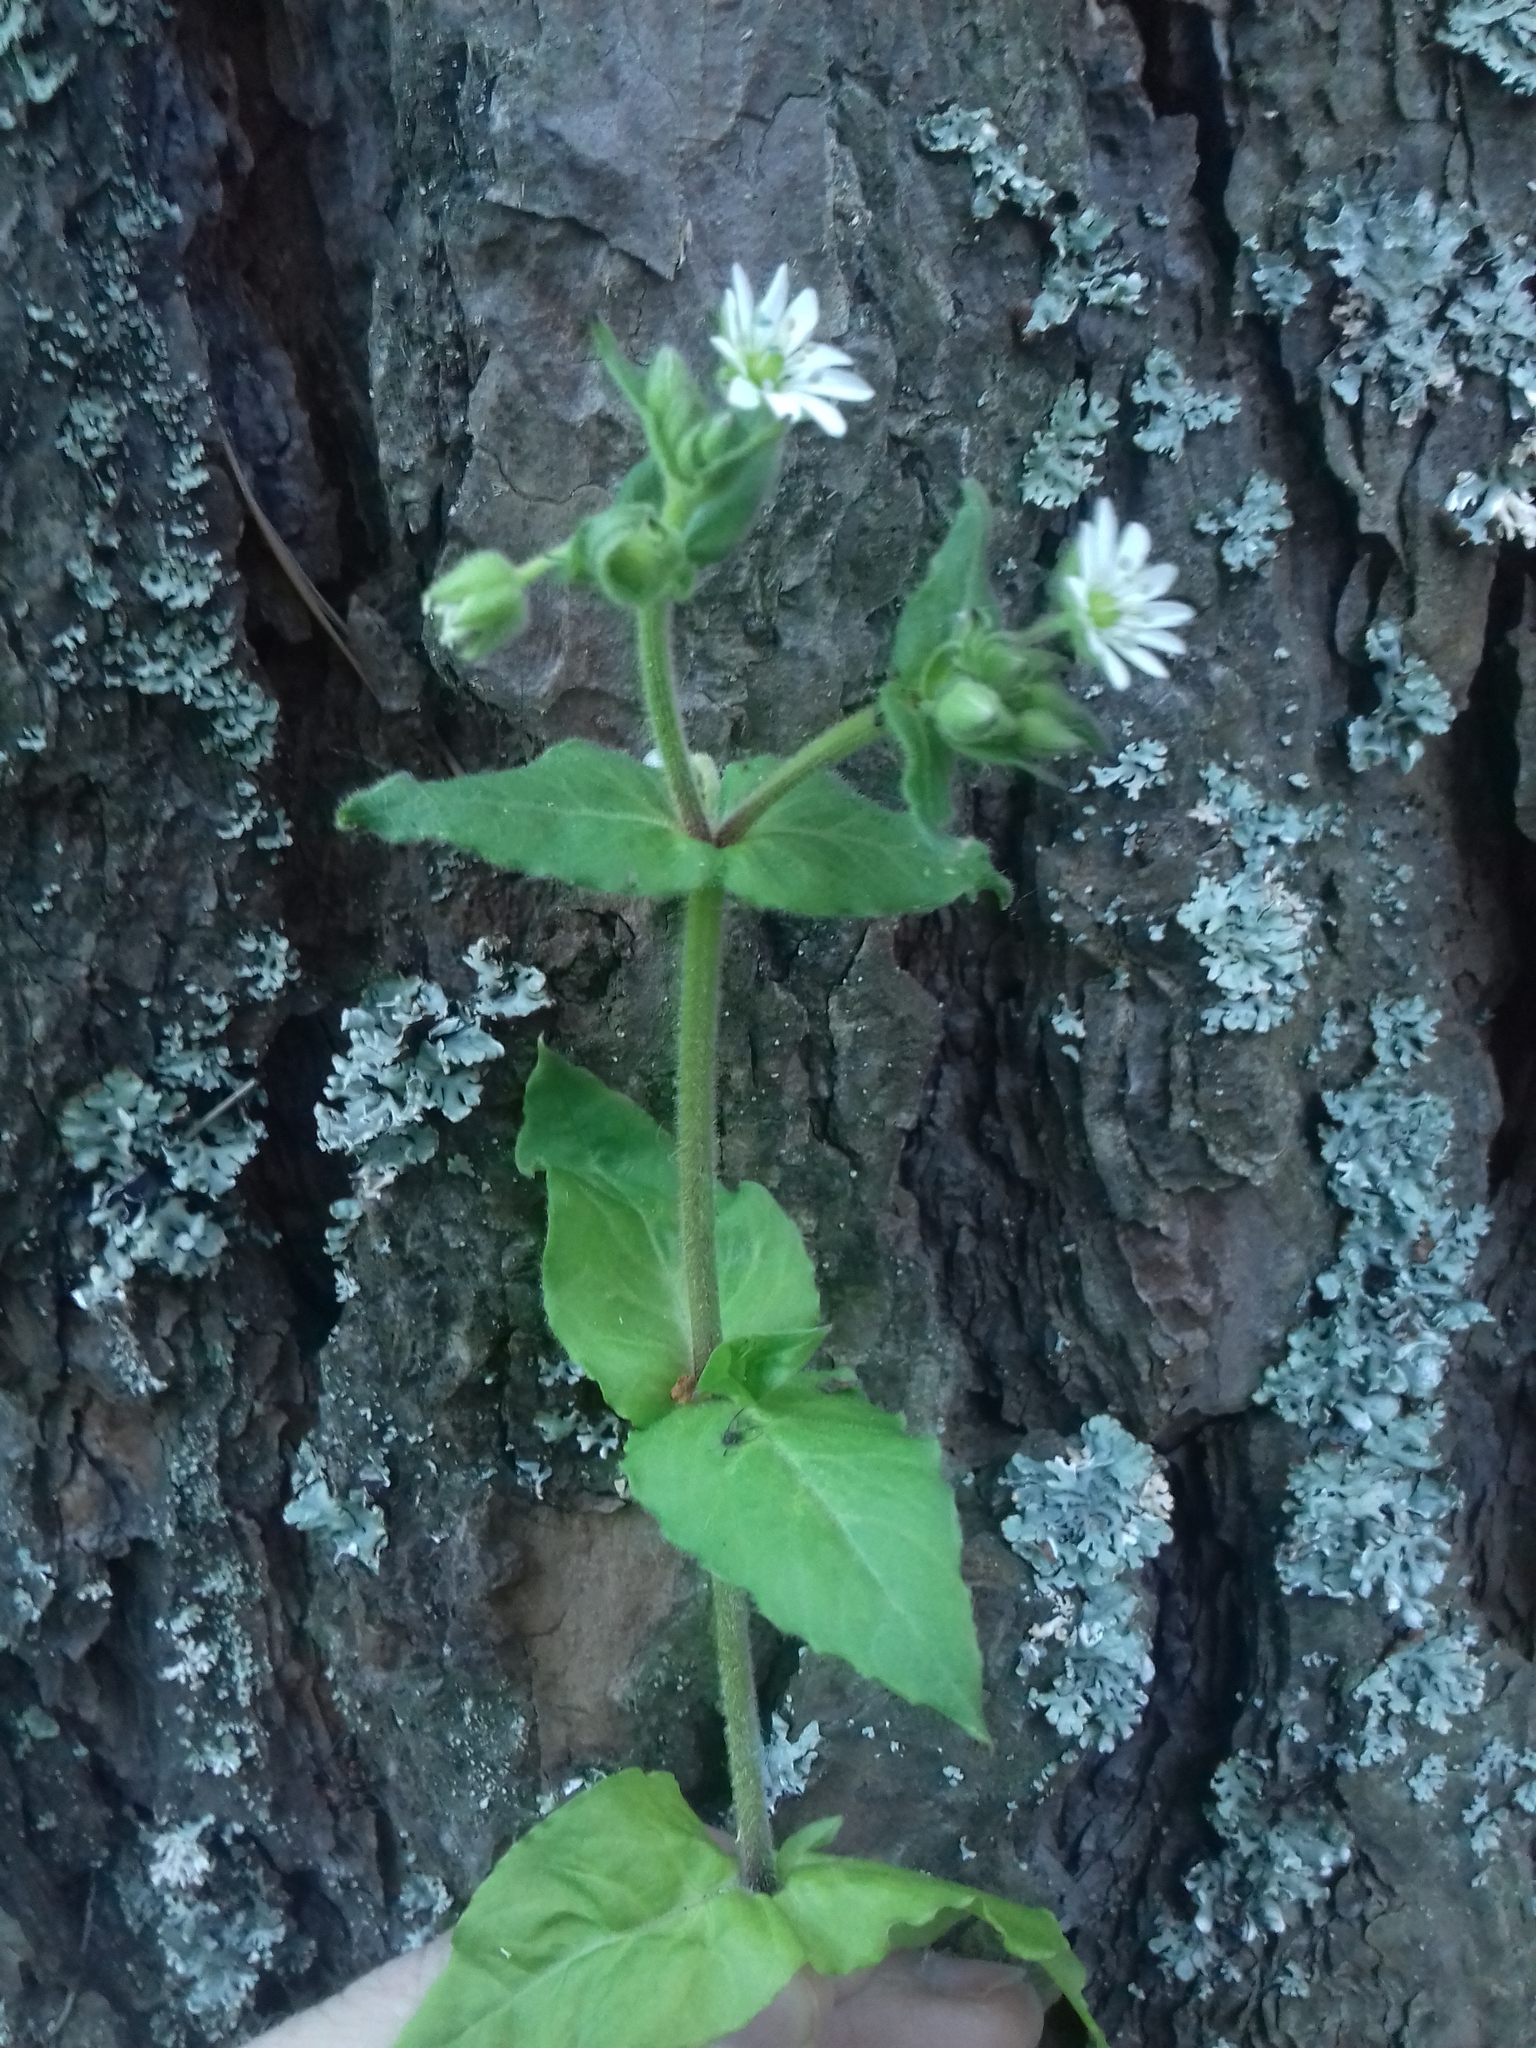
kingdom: Plantae
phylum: Tracheophyta
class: Magnoliopsida
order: Caryophyllales
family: Caryophyllaceae
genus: Stellaria
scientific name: Stellaria aquatica
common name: Water chickweed
